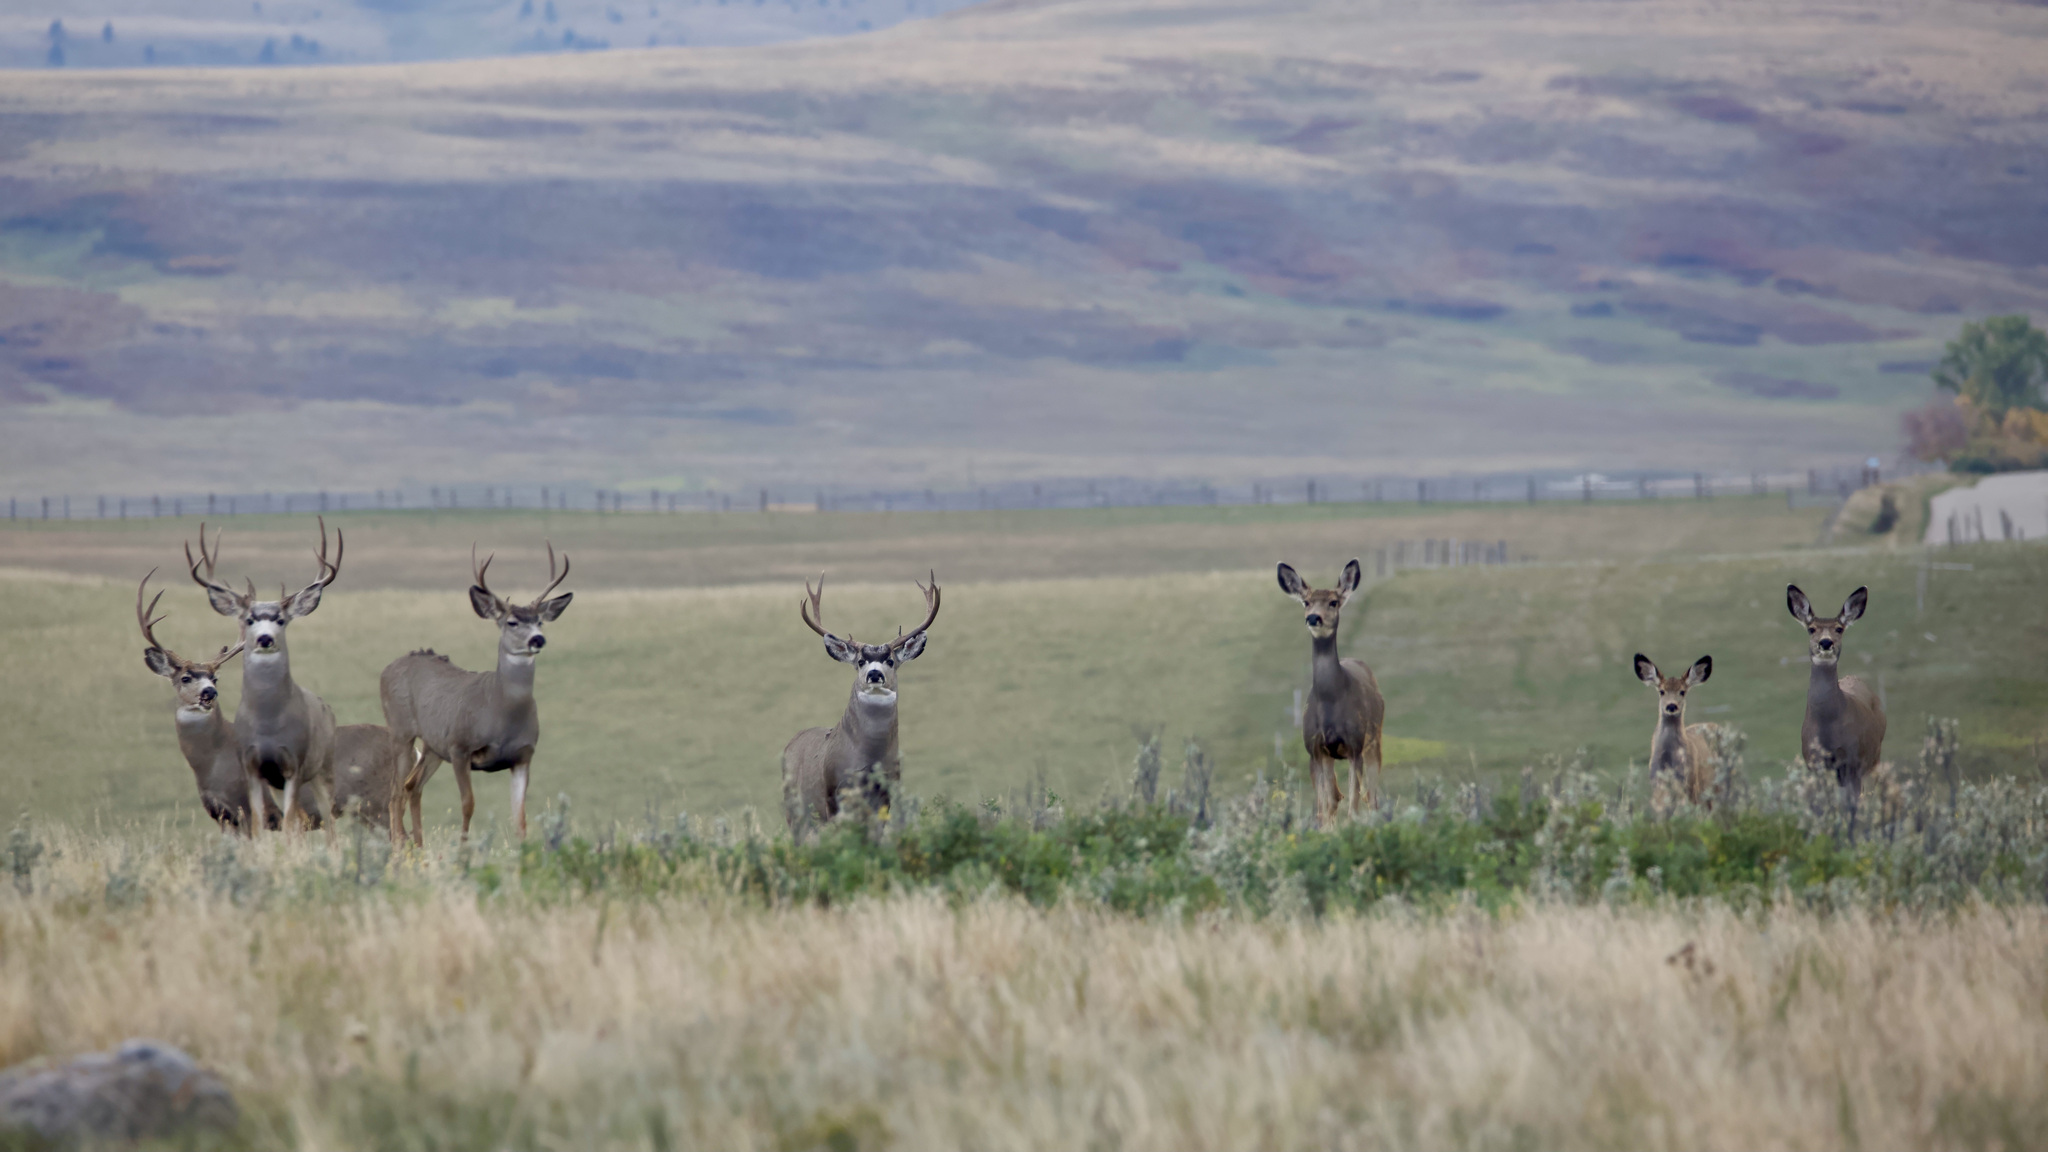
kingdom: Animalia
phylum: Chordata
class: Mammalia
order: Artiodactyla
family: Cervidae
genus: Odocoileus
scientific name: Odocoileus hemionus
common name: Mule deer
